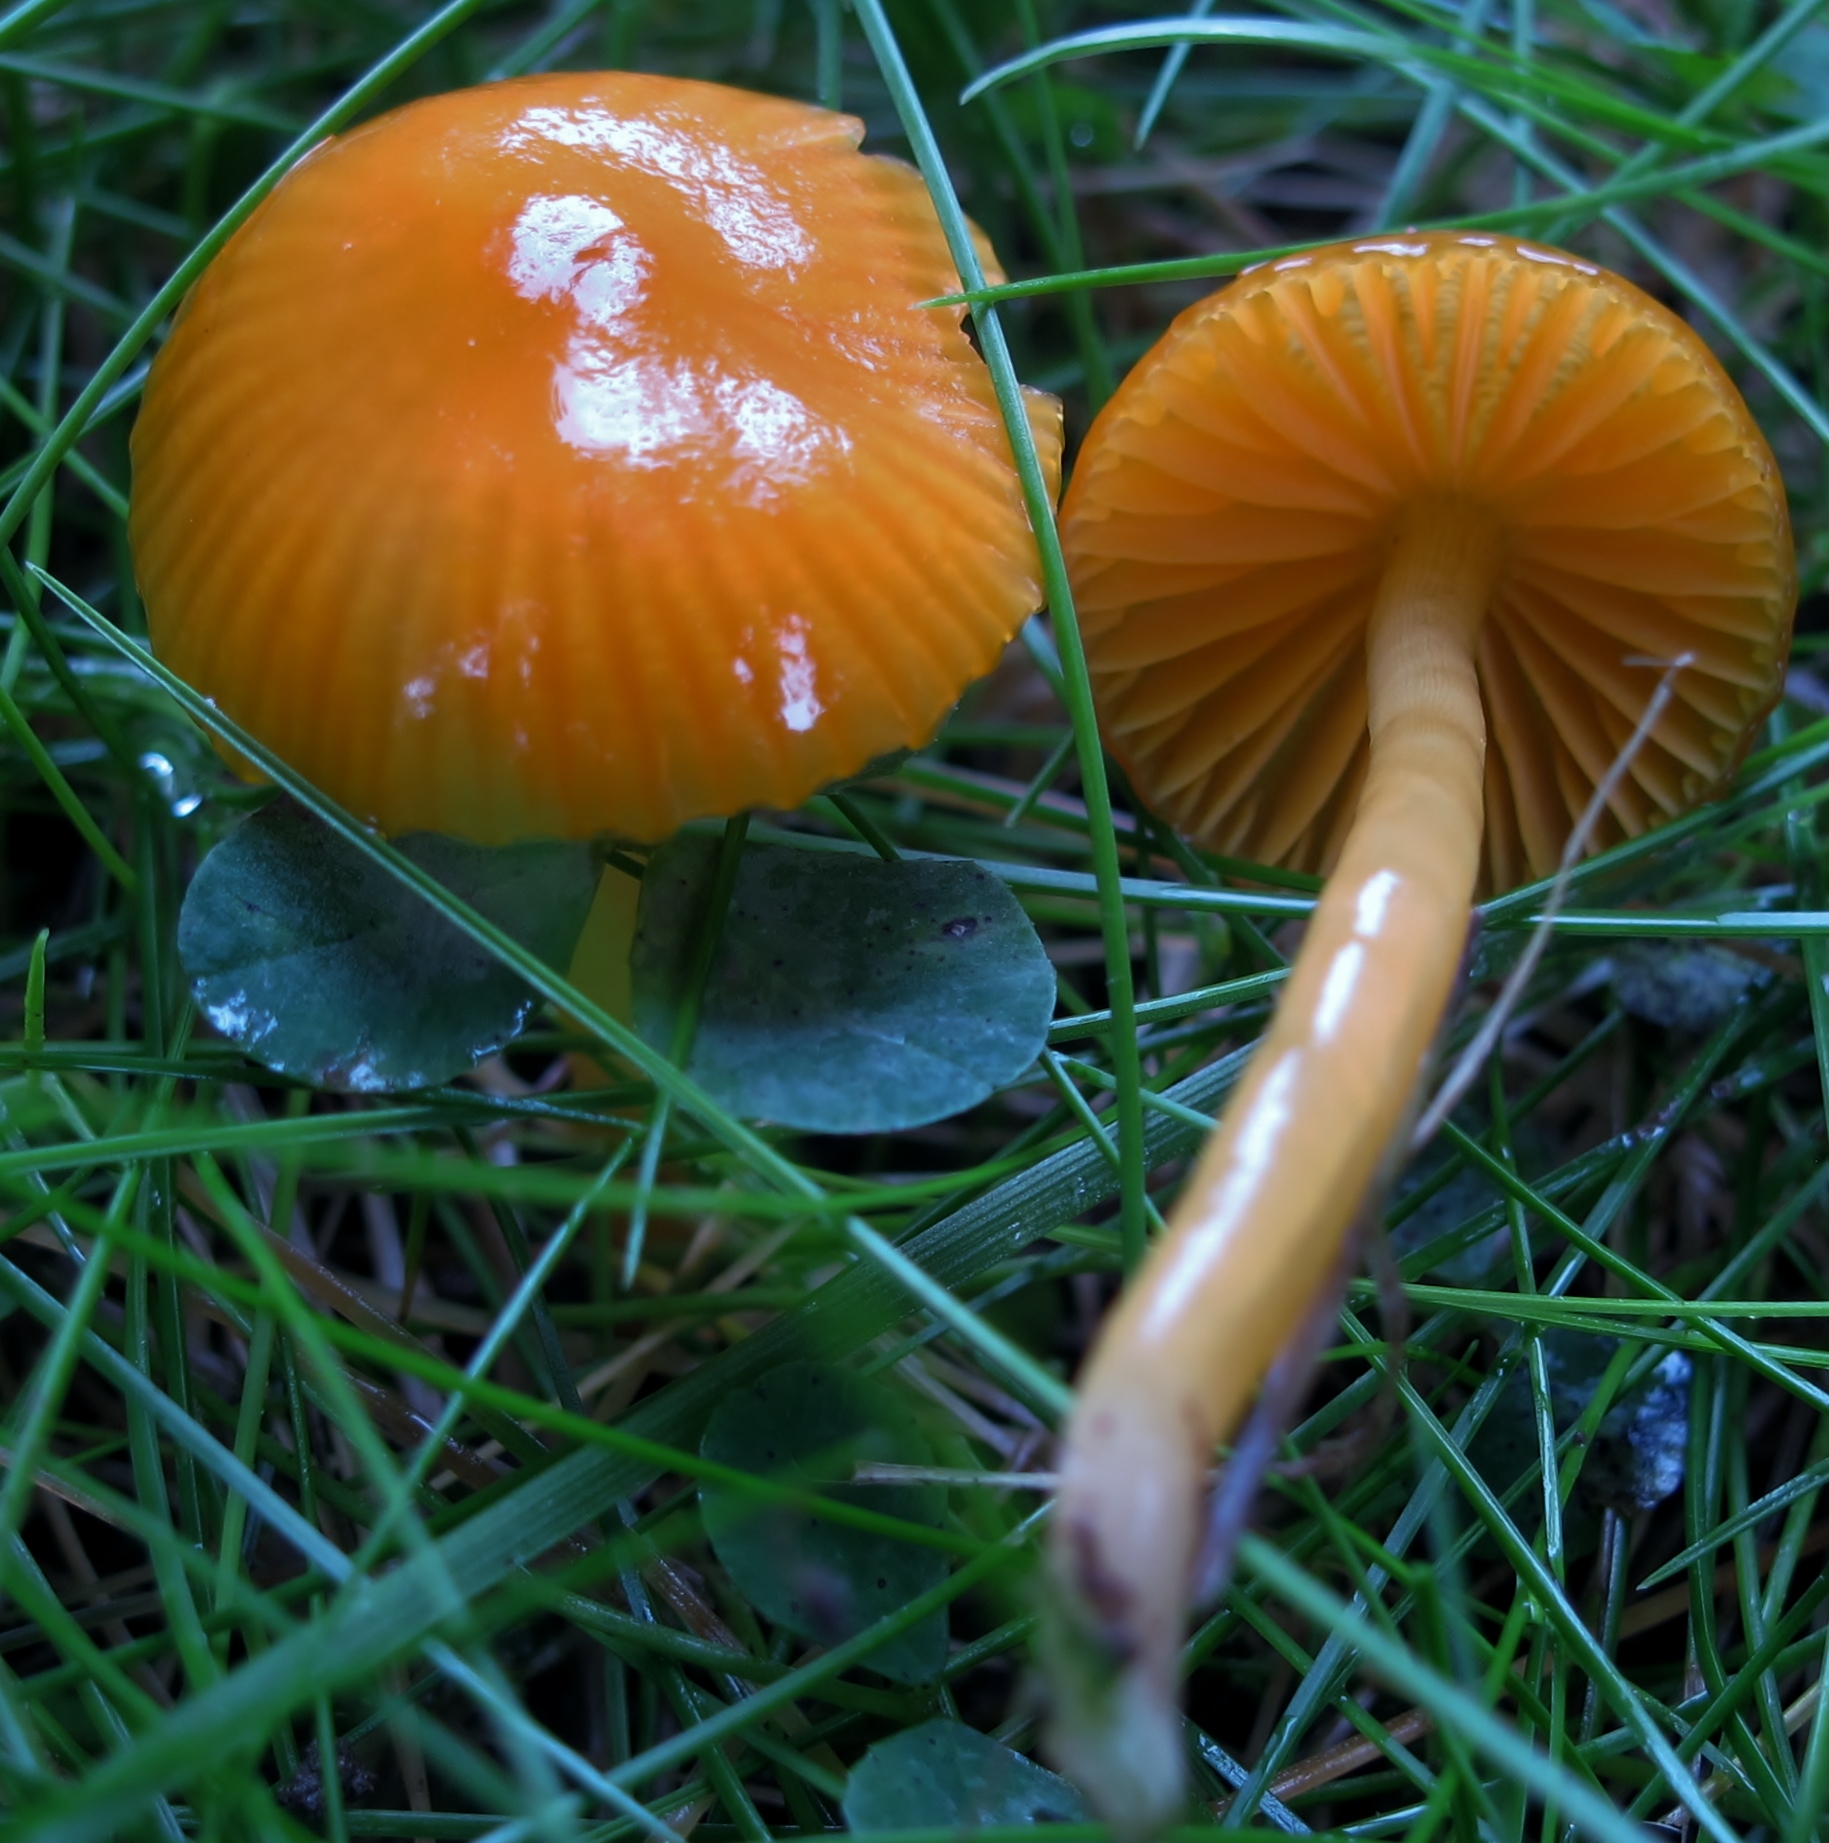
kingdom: Fungi
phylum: Basidiomycota
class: Agaricomycetes
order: Agaricales
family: Hygrophoraceae
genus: Gliophorus
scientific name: Gliophorus psittacinus
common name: Parrot wax-cap
